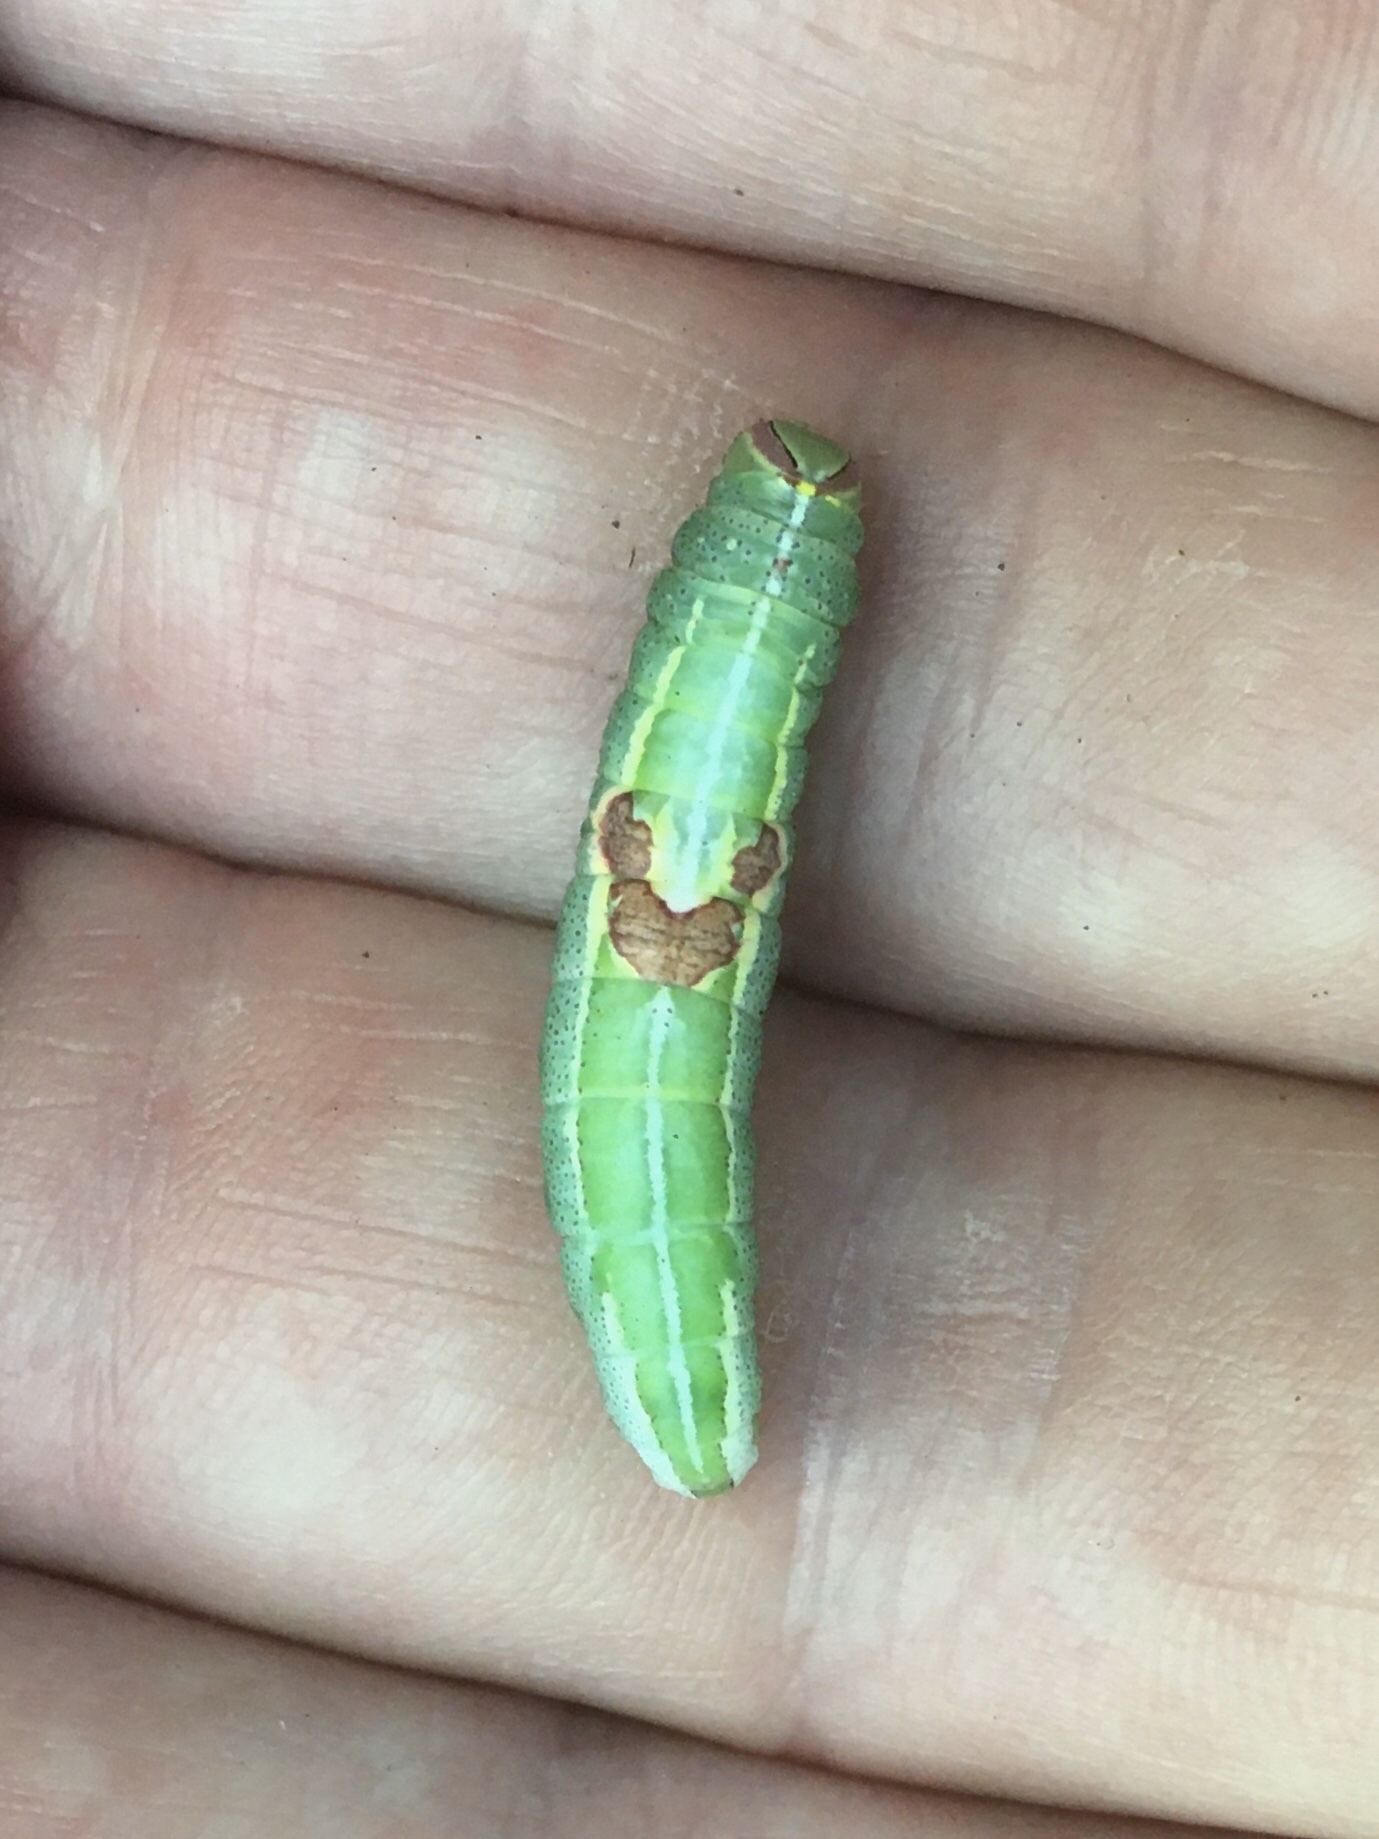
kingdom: Animalia
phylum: Arthropoda
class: Insecta
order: Lepidoptera
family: Notodontidae
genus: Disphragis
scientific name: Disphragis Cecrita guttivitta
